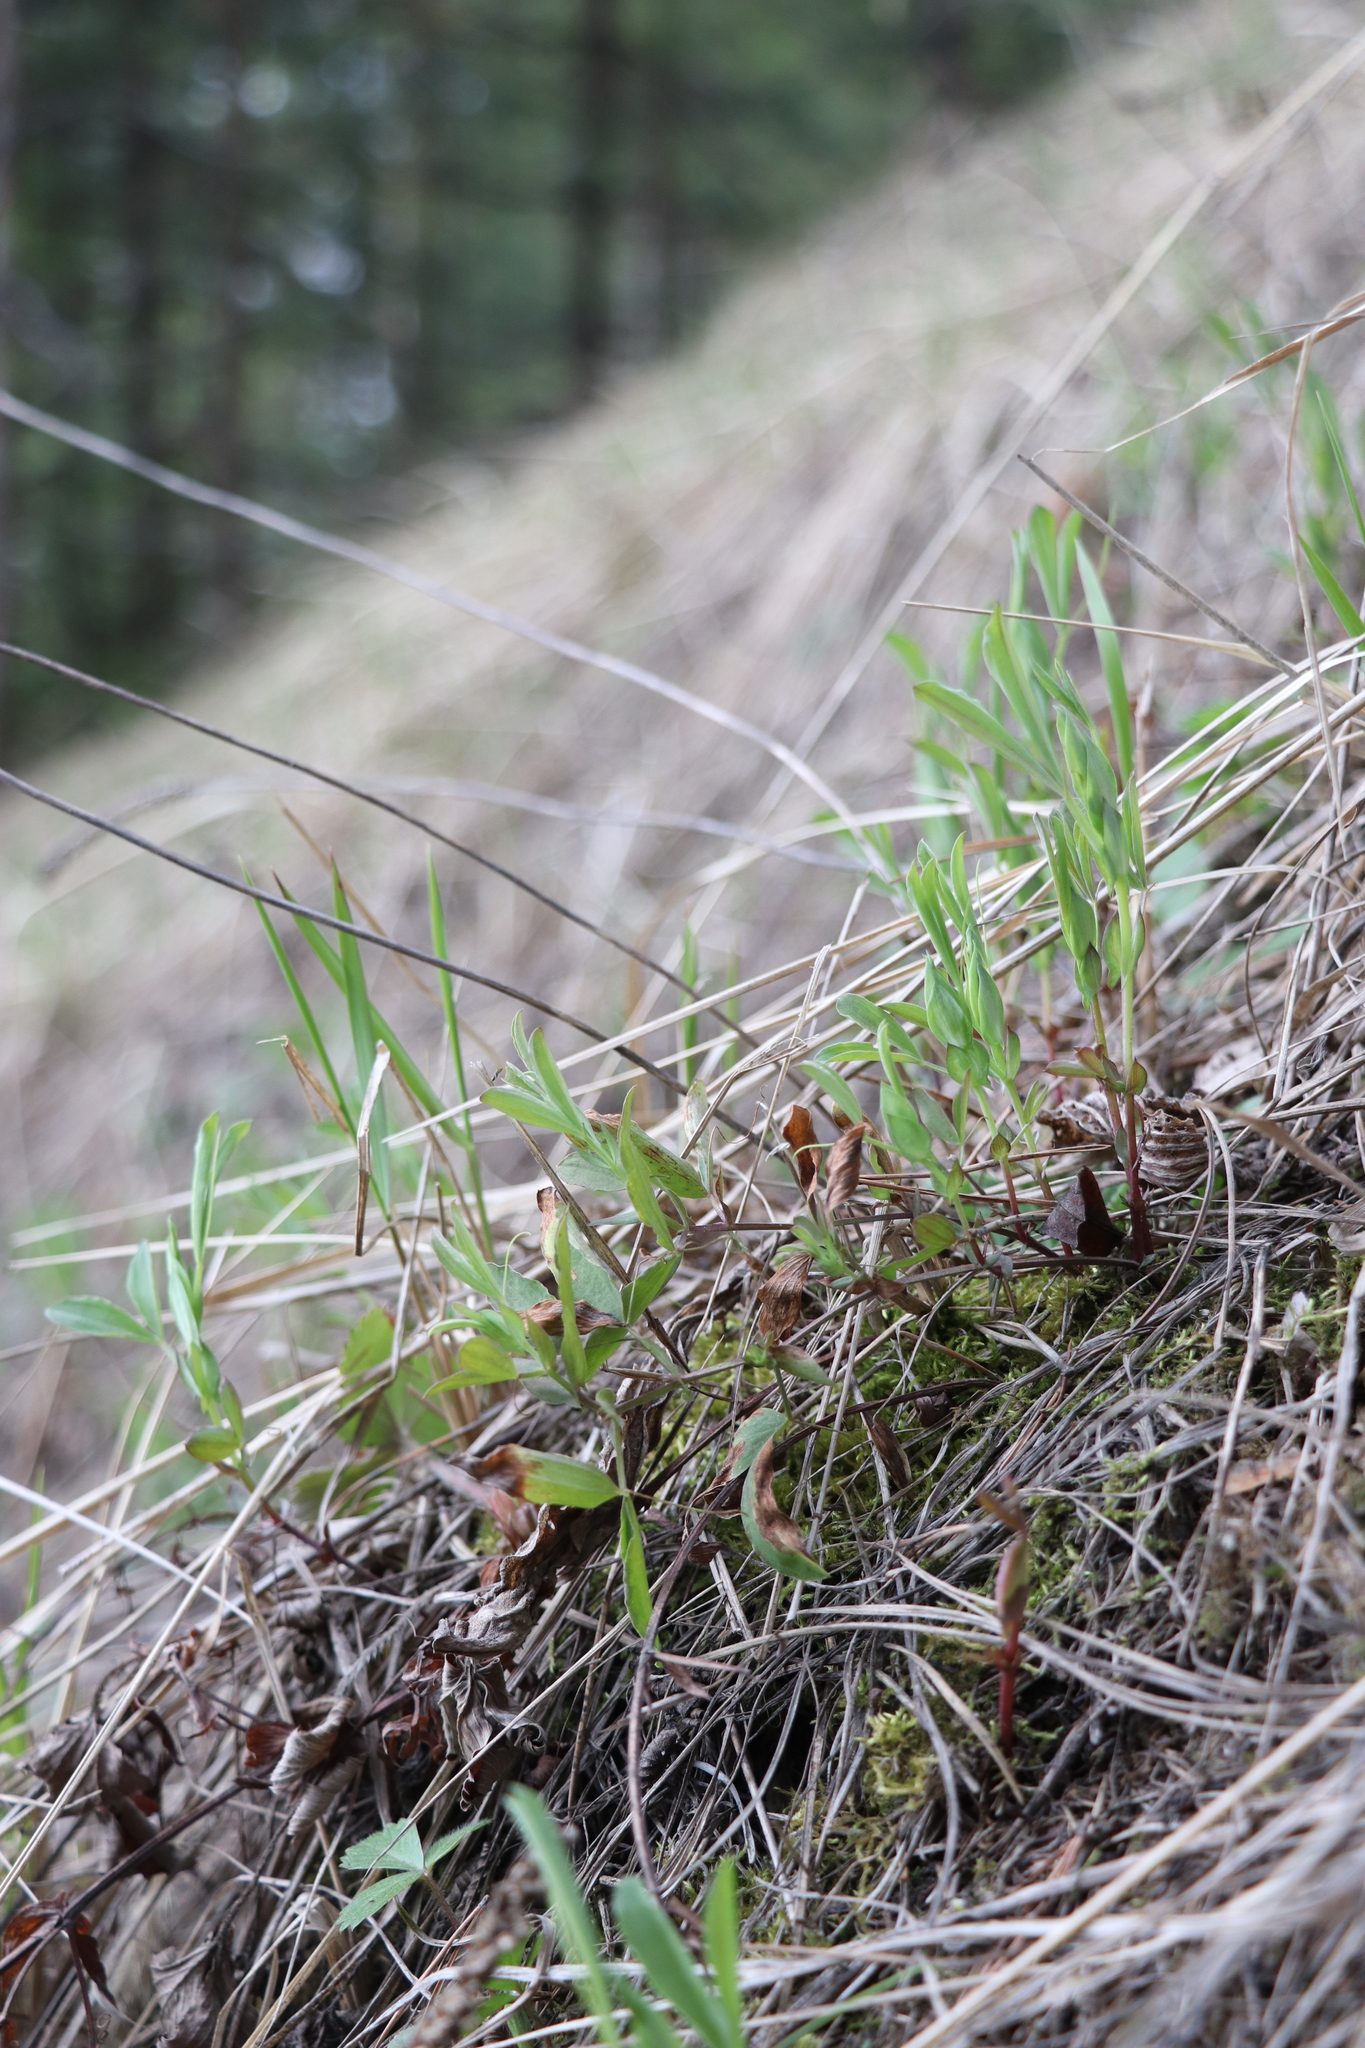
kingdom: Plantae
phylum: Tracheophyta
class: Magnoliopsida
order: Fabales
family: Fabaceae
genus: Lathyrus
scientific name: Lathyrus pratensis
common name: Meadow vetchling
